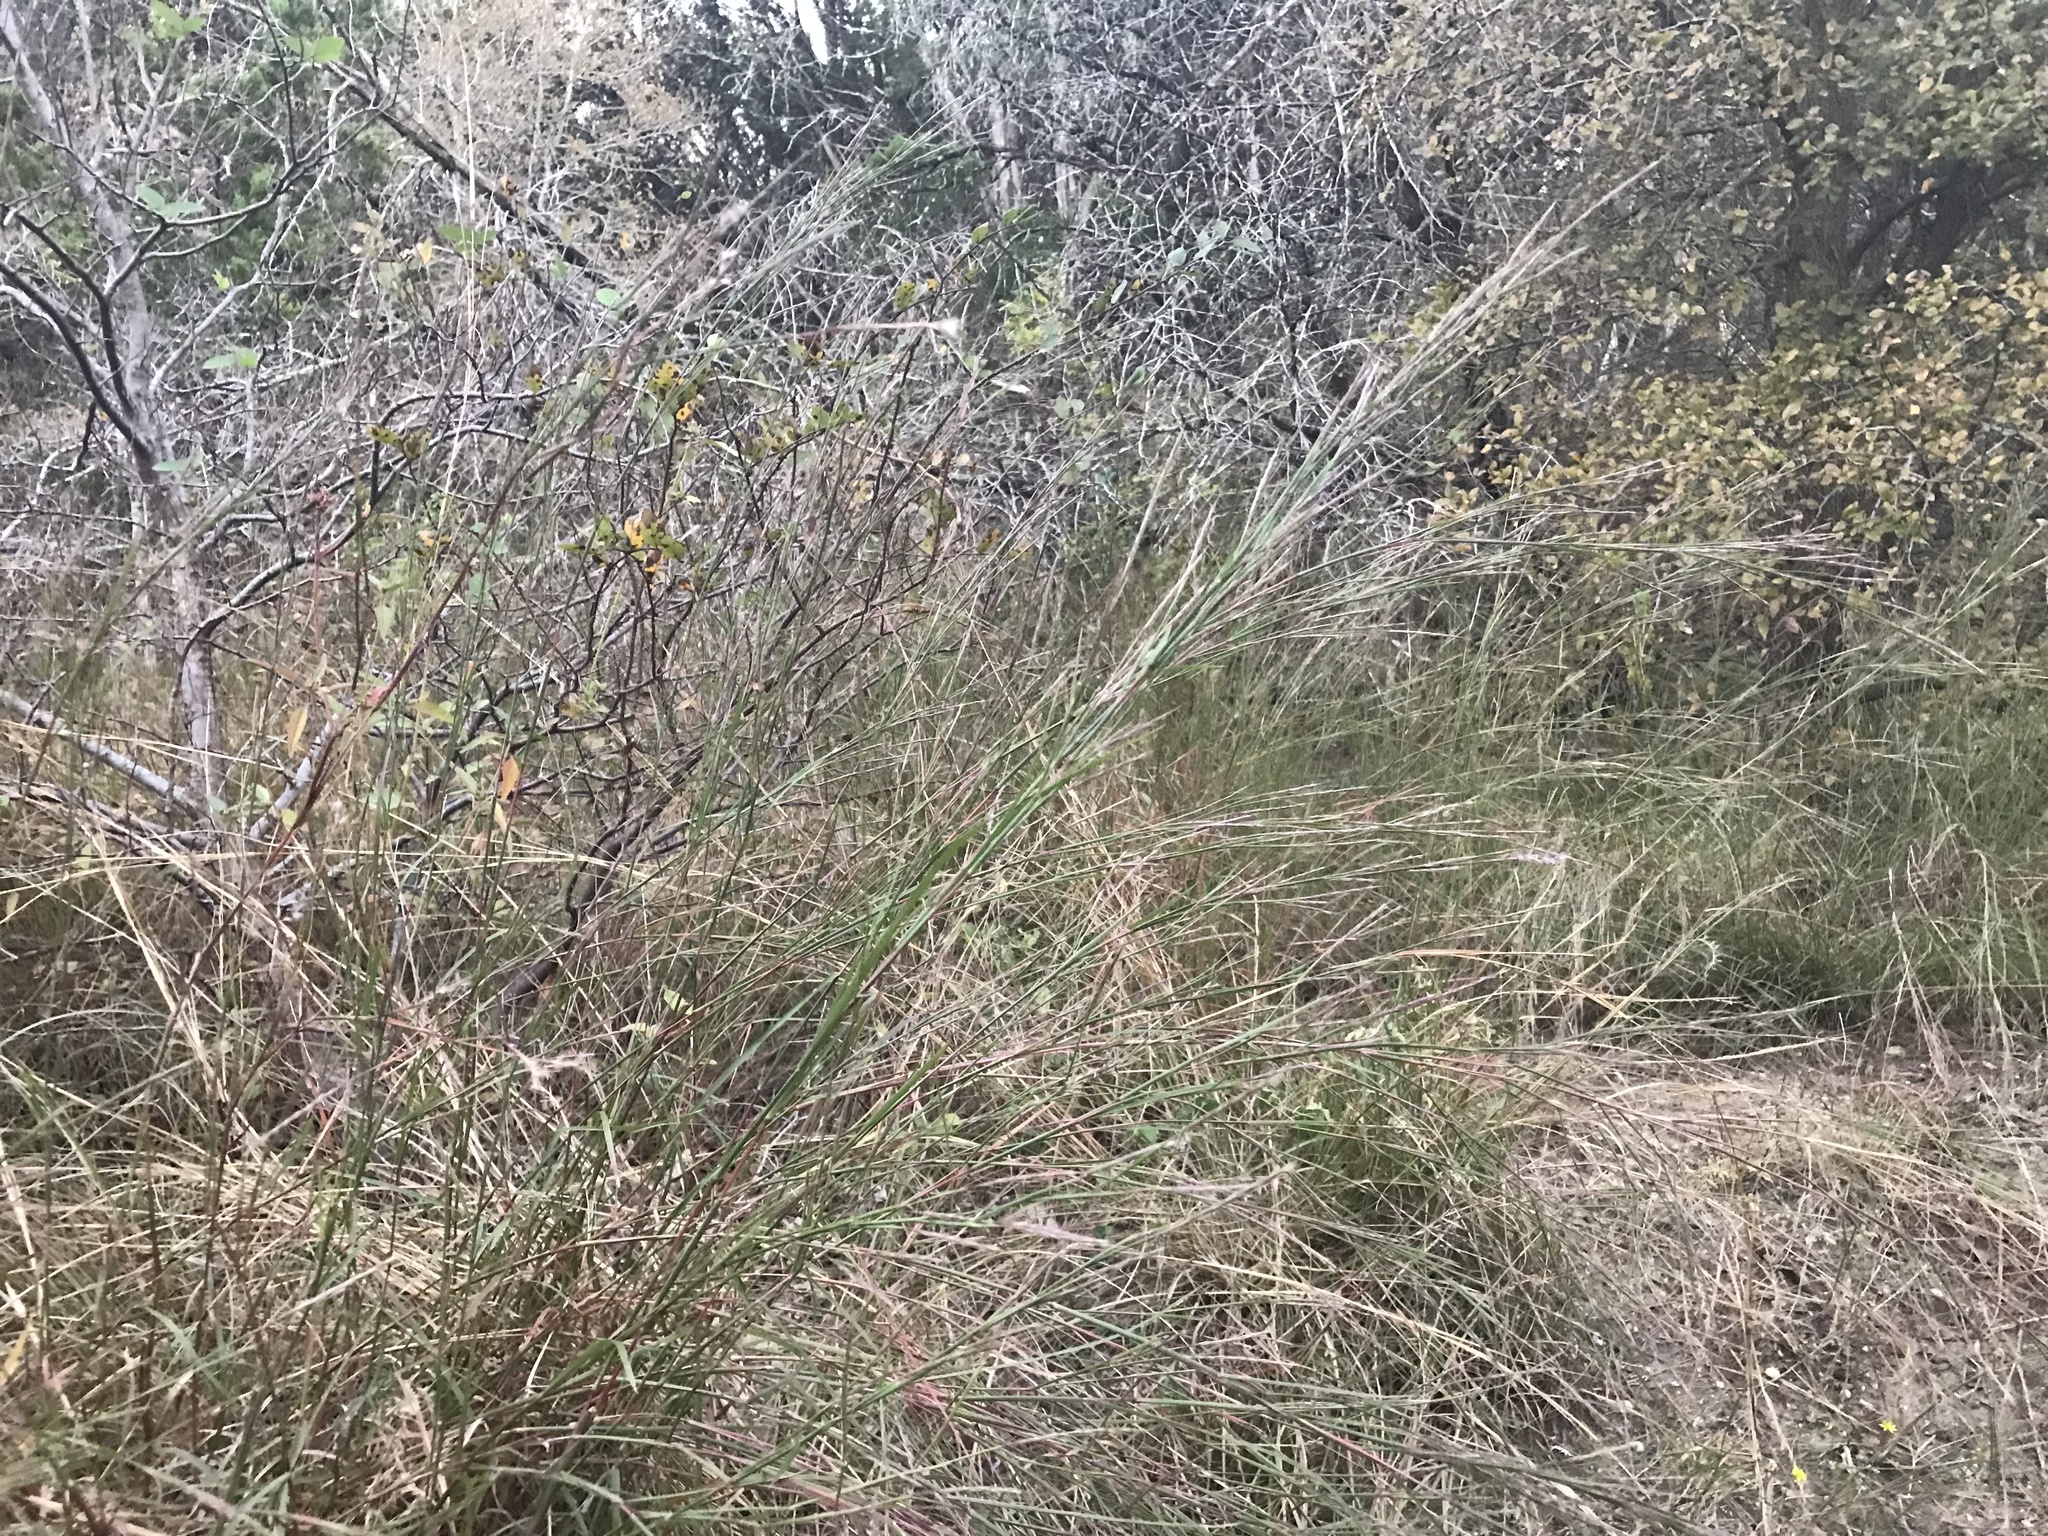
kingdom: Plantae
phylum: Tracheophyta
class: Liliopsida
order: Poales
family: Poaceae
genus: Schizachyrium
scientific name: Schizachyrium scoparium
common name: Little bluestem
